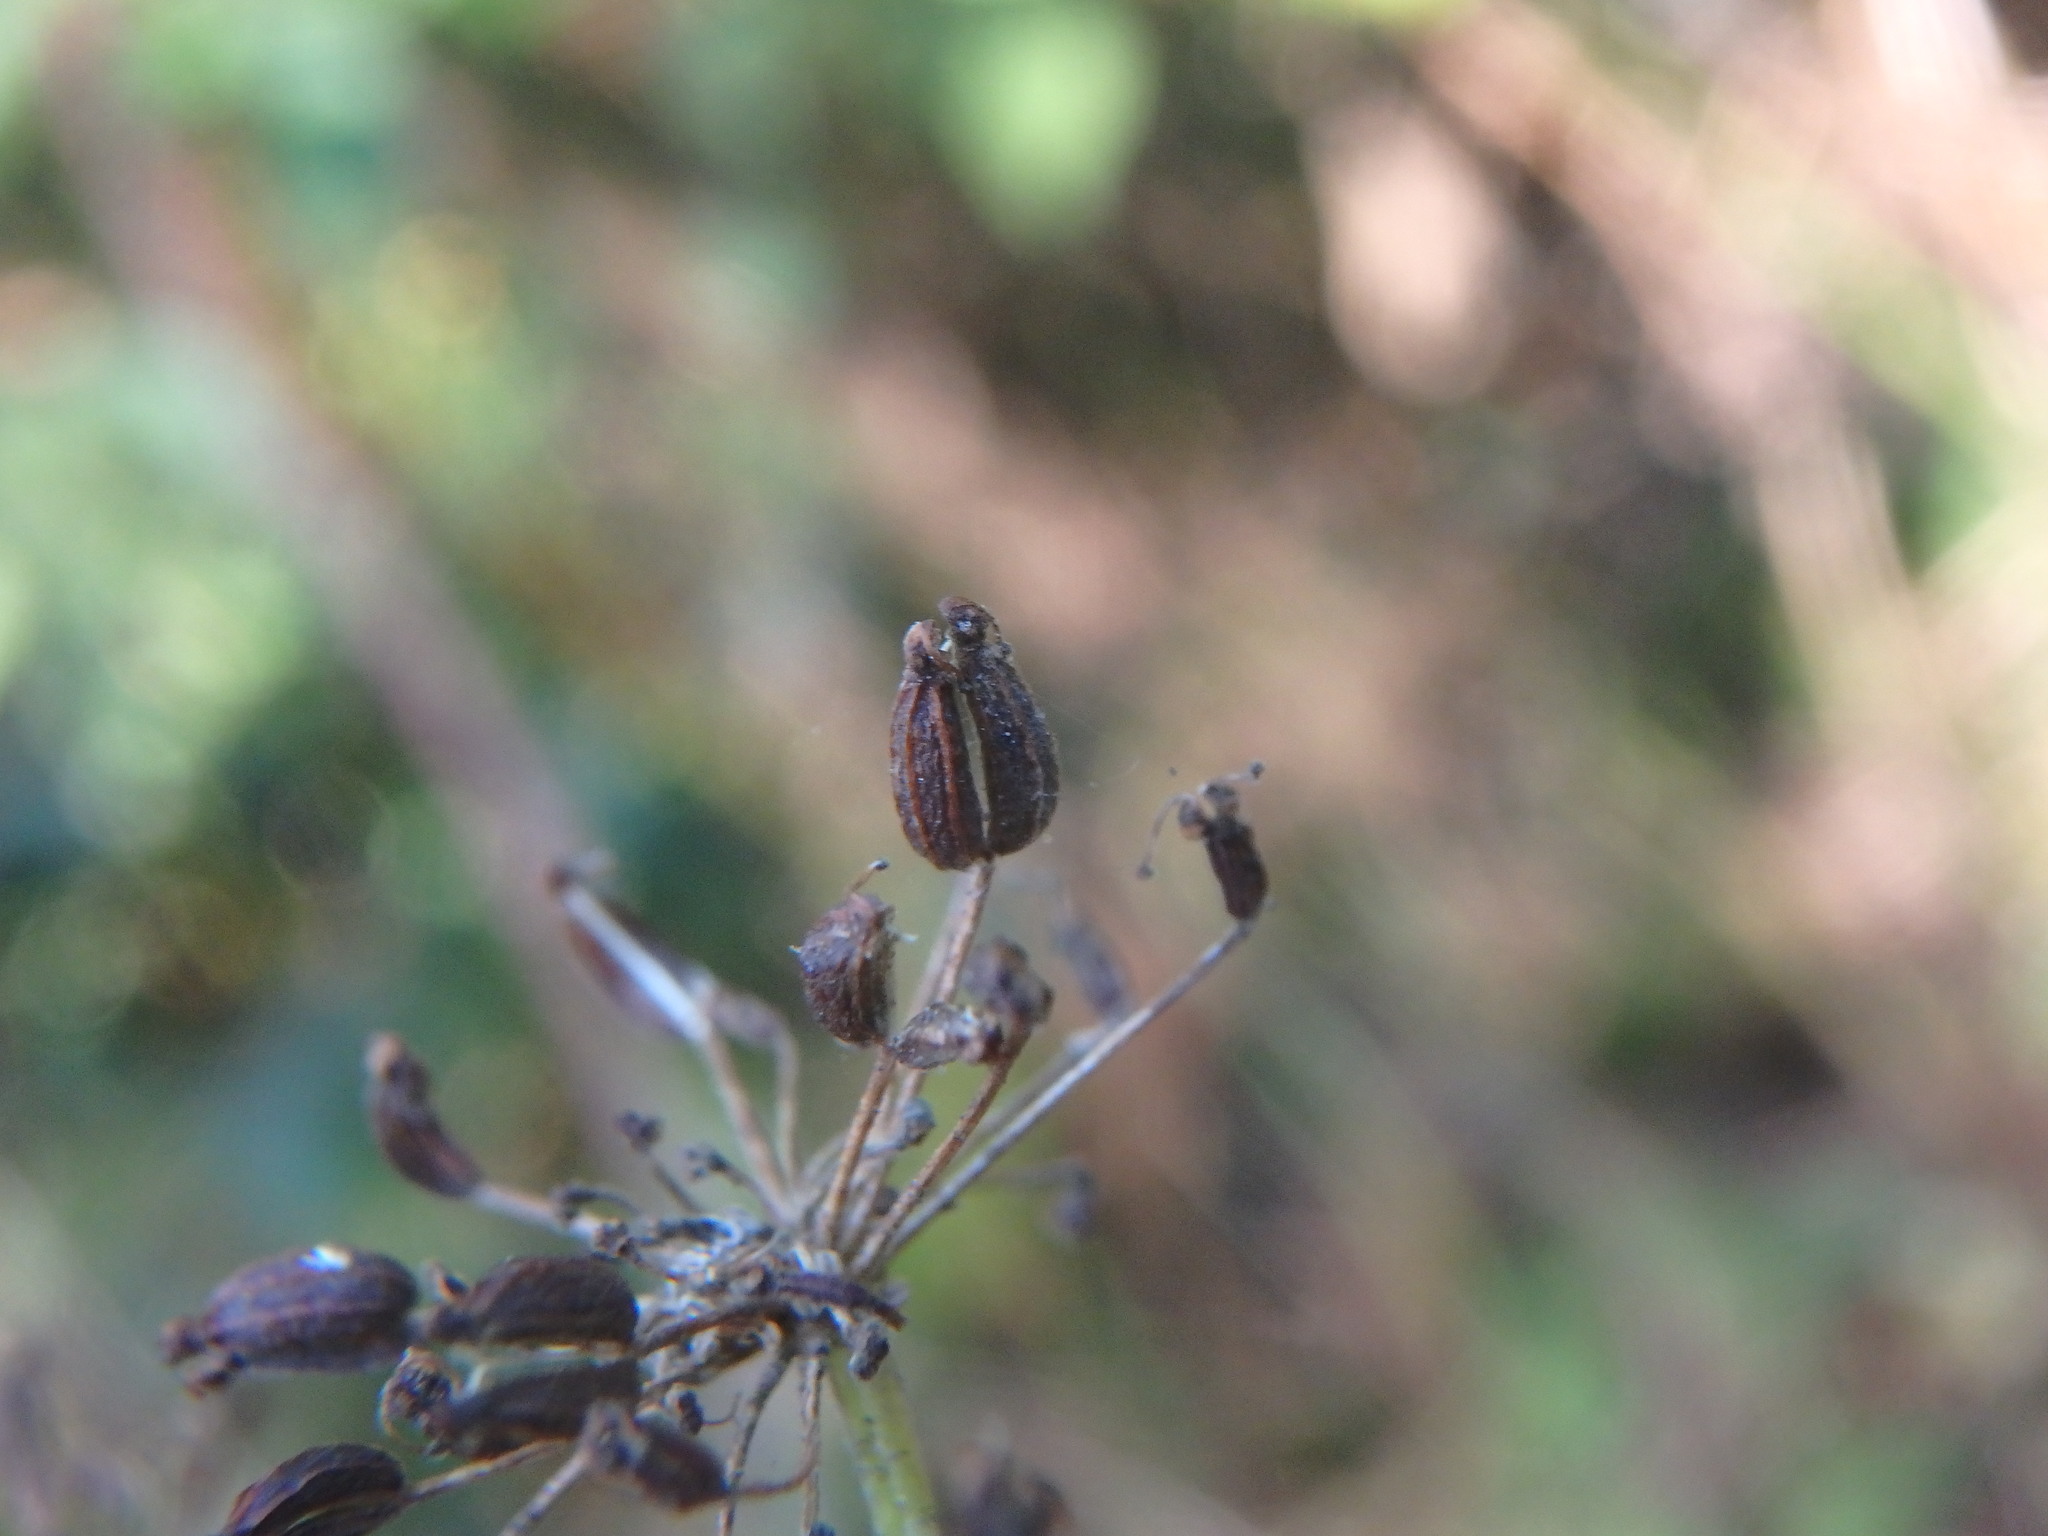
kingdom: Plantae
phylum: Tracheophyta
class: Magnoliopsida
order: Apiales
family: Apiaceae
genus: Aegopodium
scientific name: Aegopodium podagraria
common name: Ground-elder
